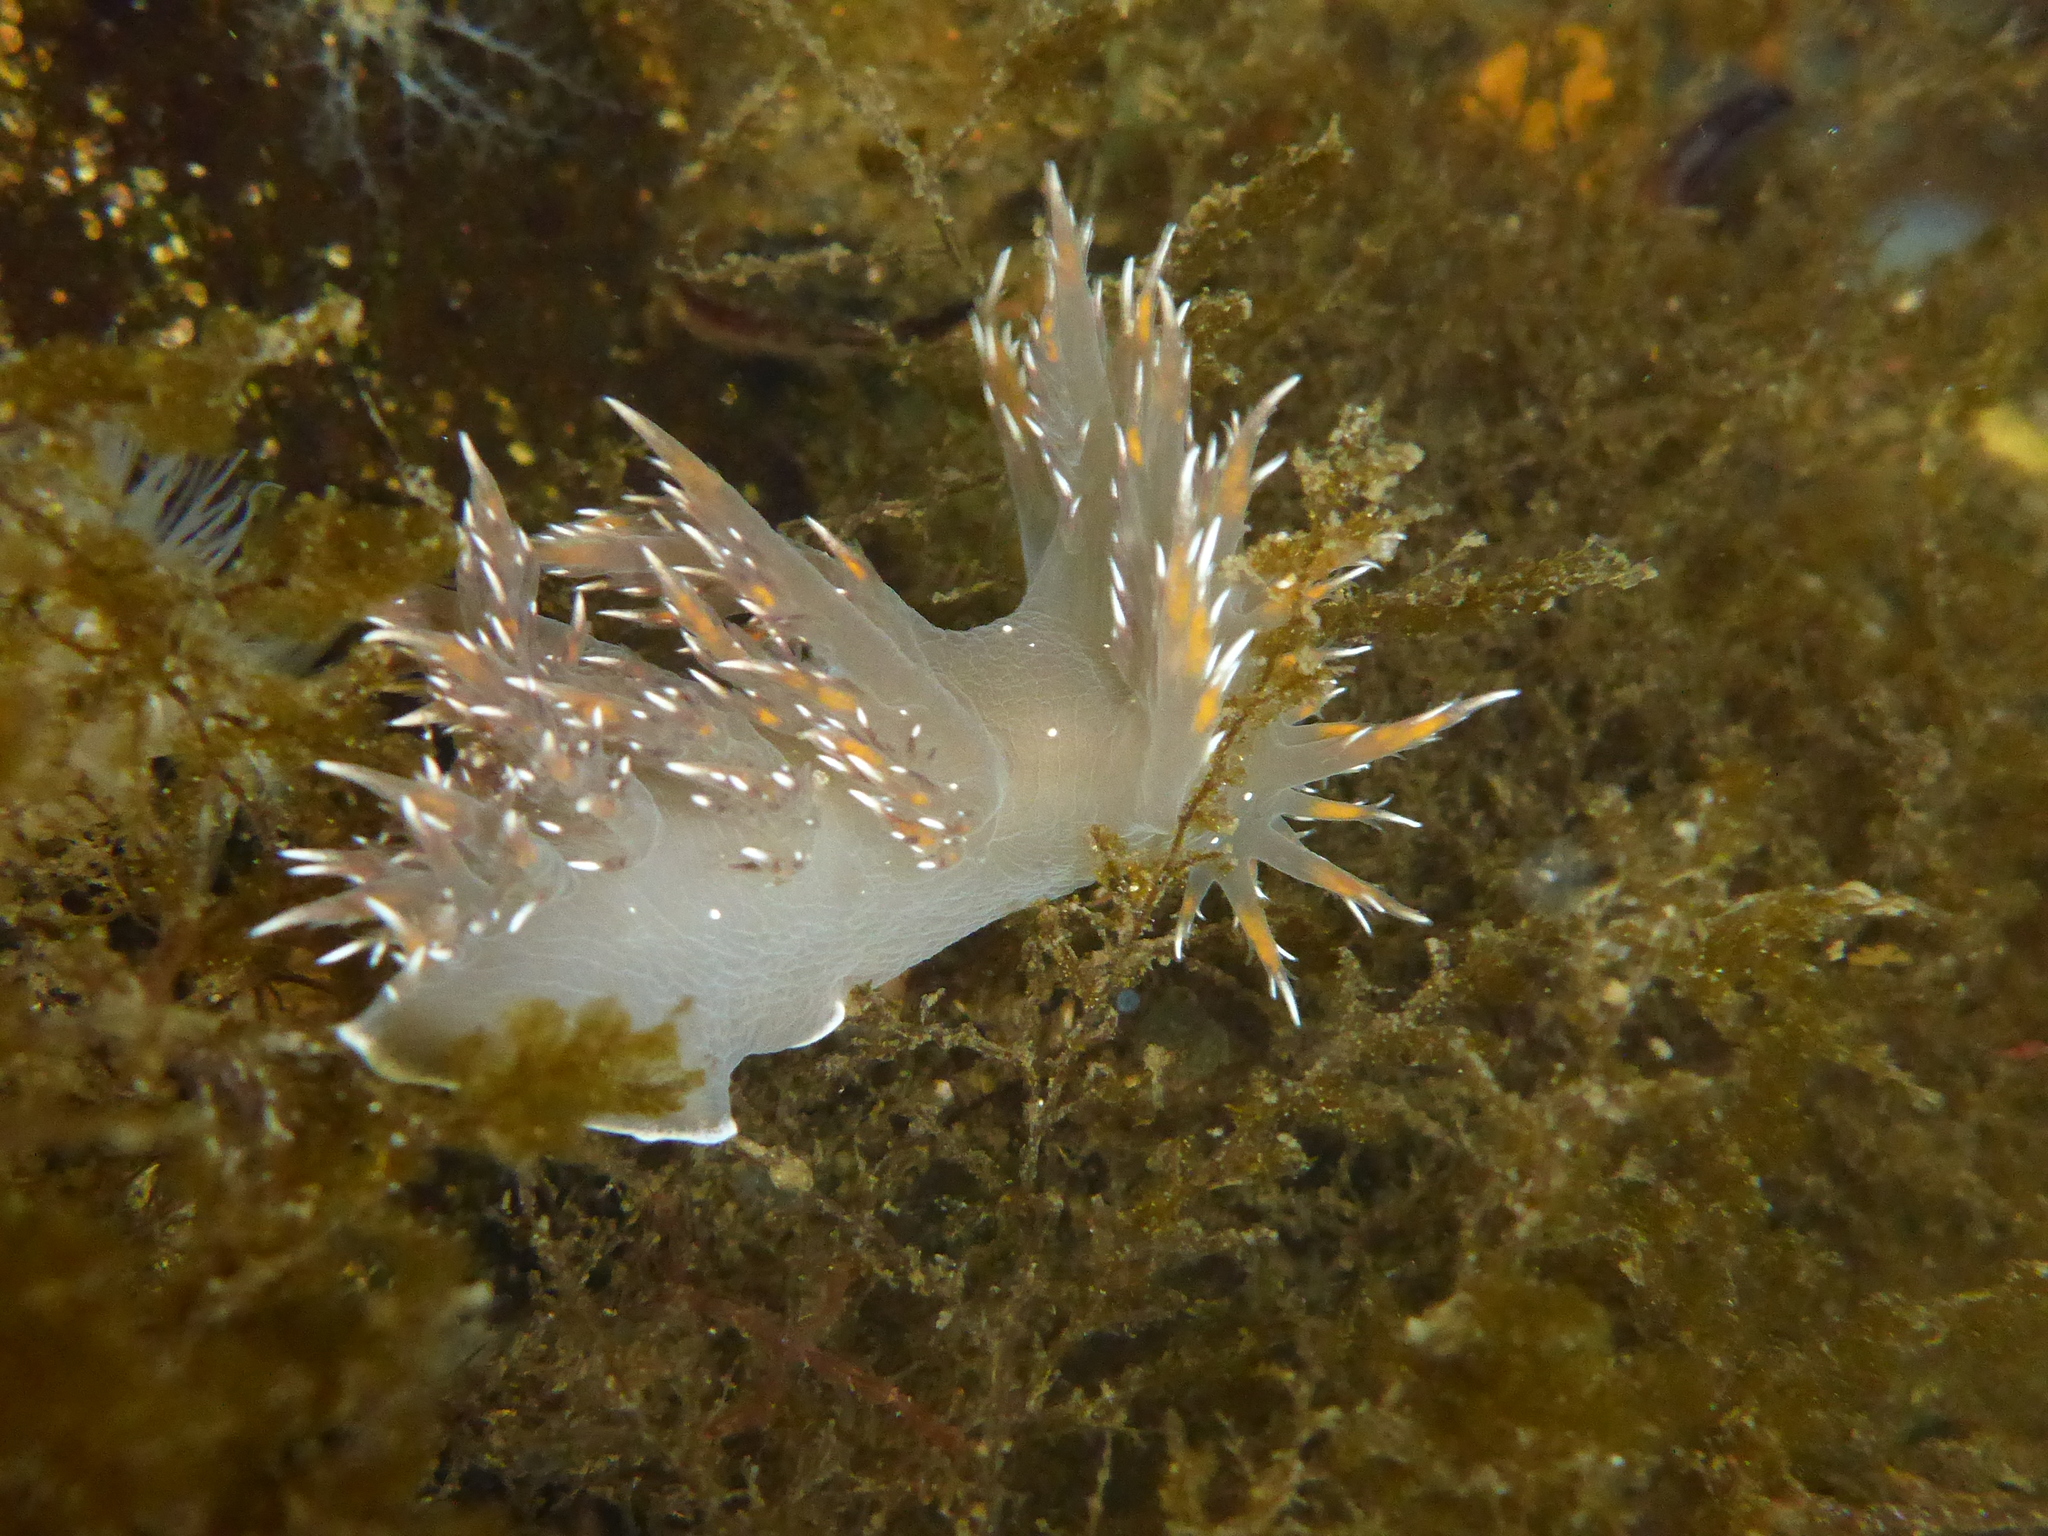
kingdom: Animalia
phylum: Mollusca
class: Gastropoda
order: Nudibranchia
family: Dendronotidae
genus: Dendronotus
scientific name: Dendronotus iris
